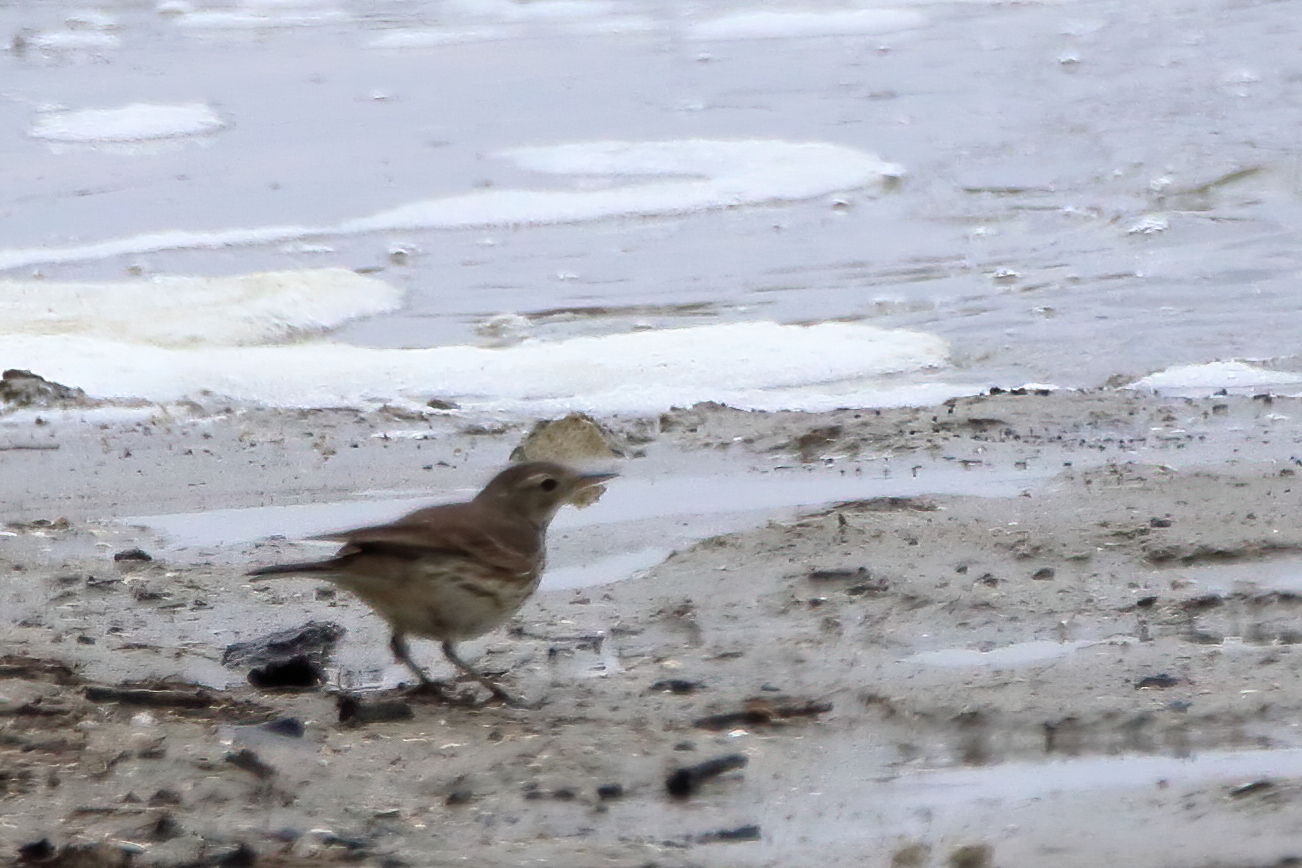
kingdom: Animalia
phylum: Chordata
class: Aves
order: Passeriformes
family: Motacillidae
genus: Anthus
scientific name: Anthus rubescens
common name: Buff-bellied pipit
